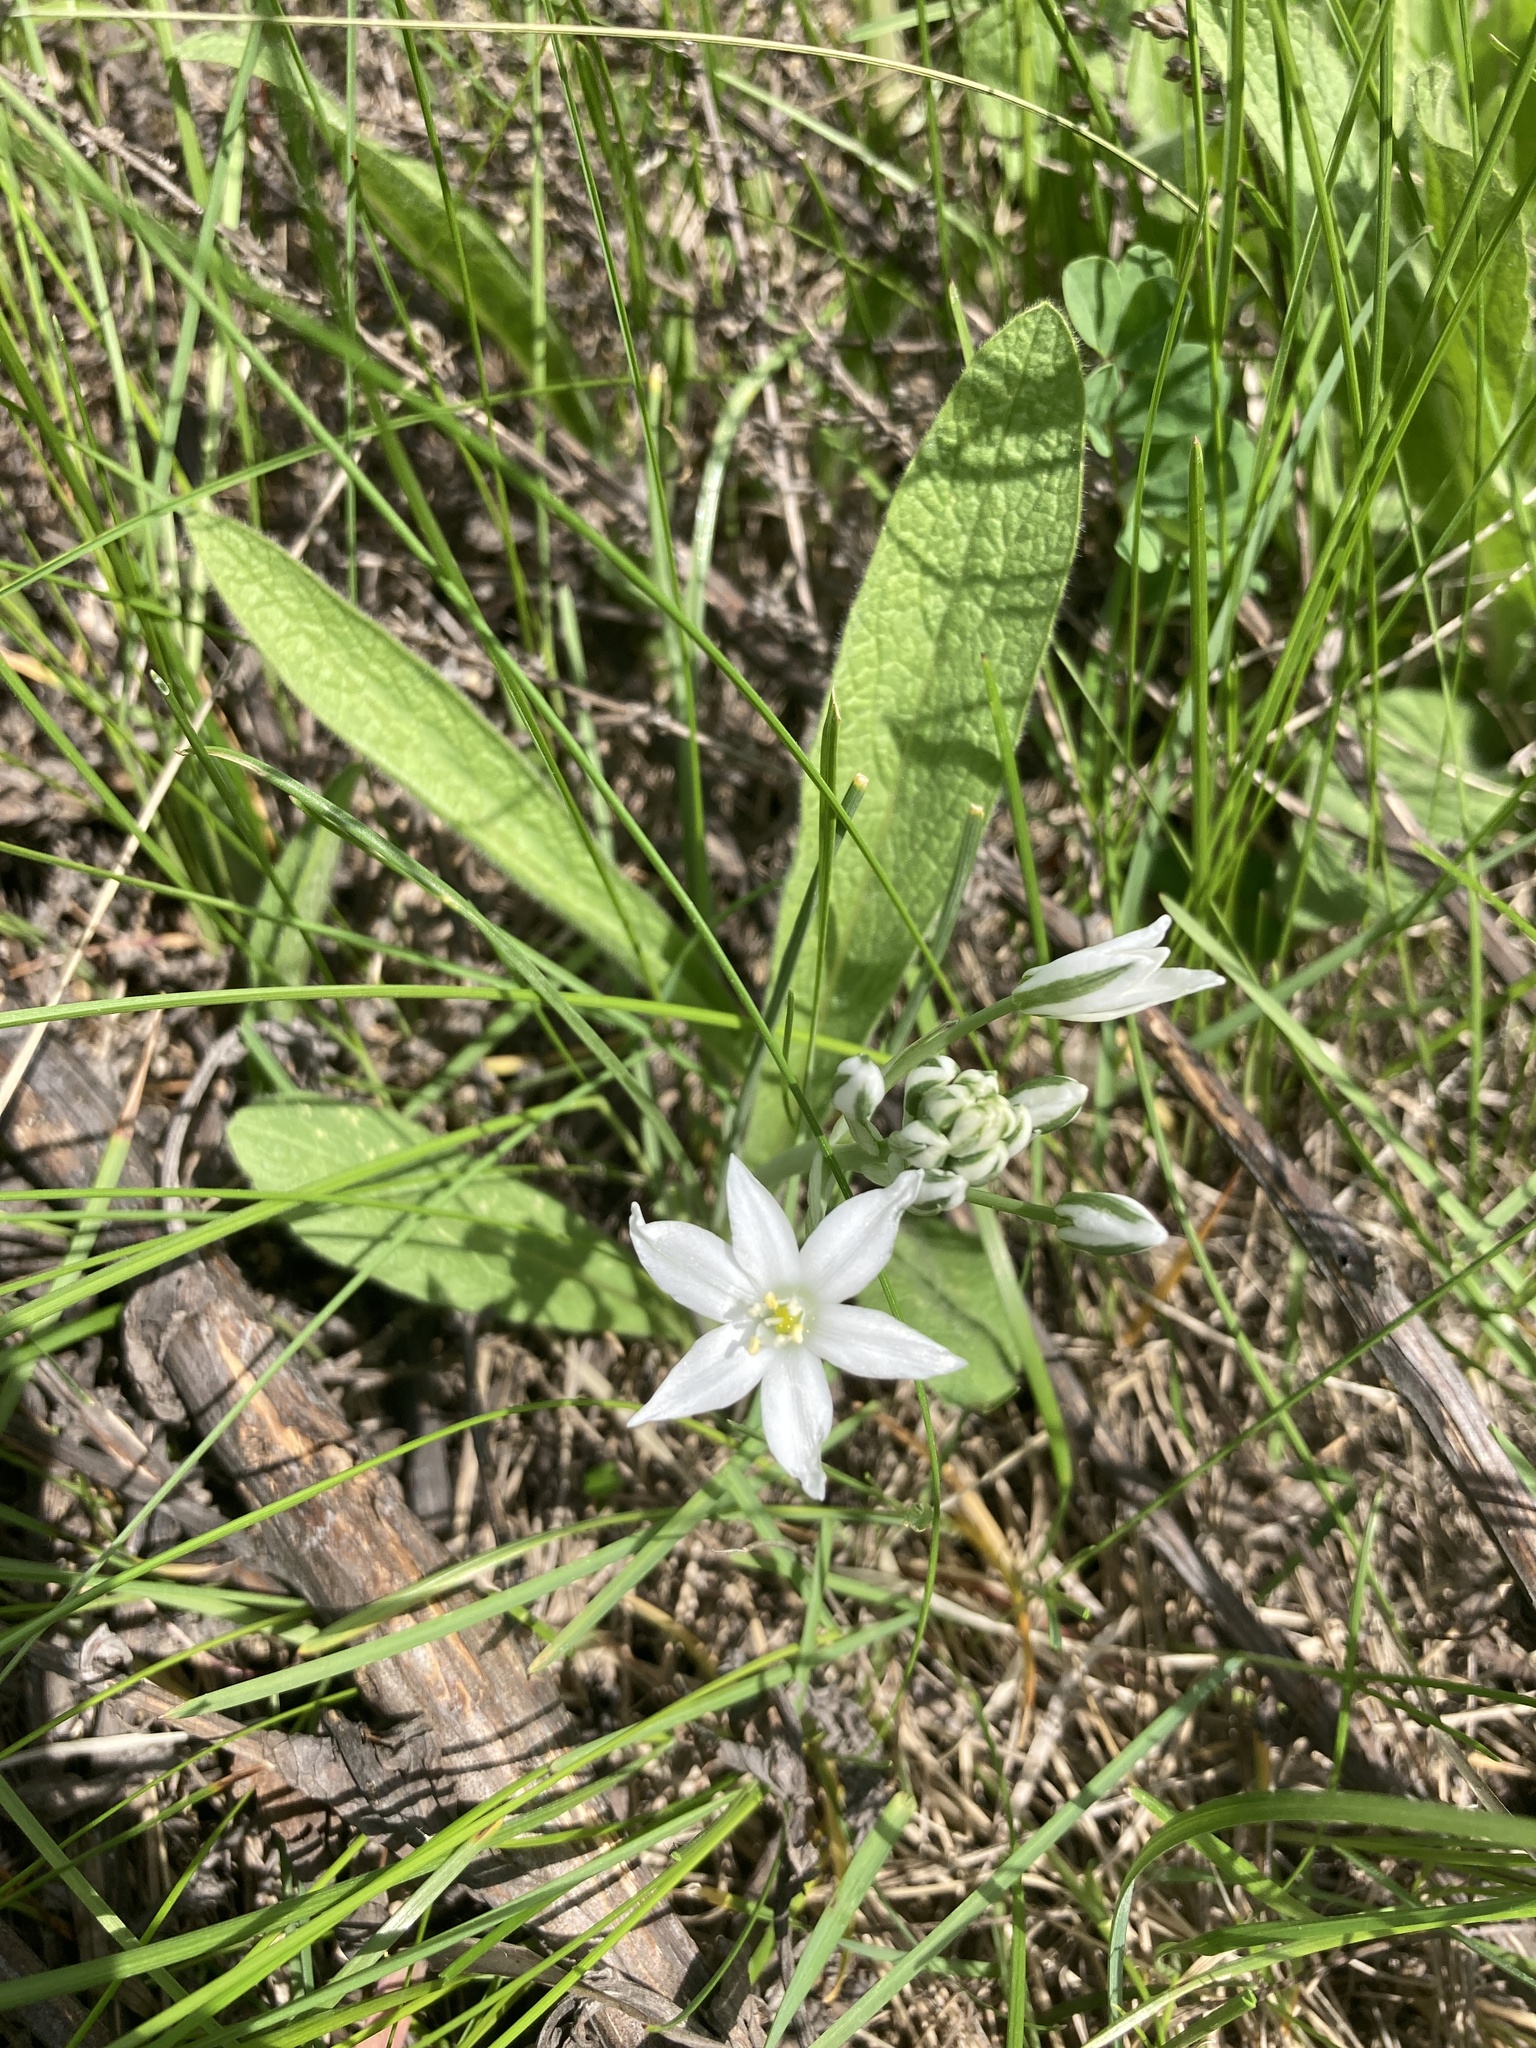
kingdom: Plantae
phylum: Tracheophyta
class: Liliopsida
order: Asparagales
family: Asparagaceae
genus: Ornithogalum
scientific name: Ornithogalum orthophyllum
